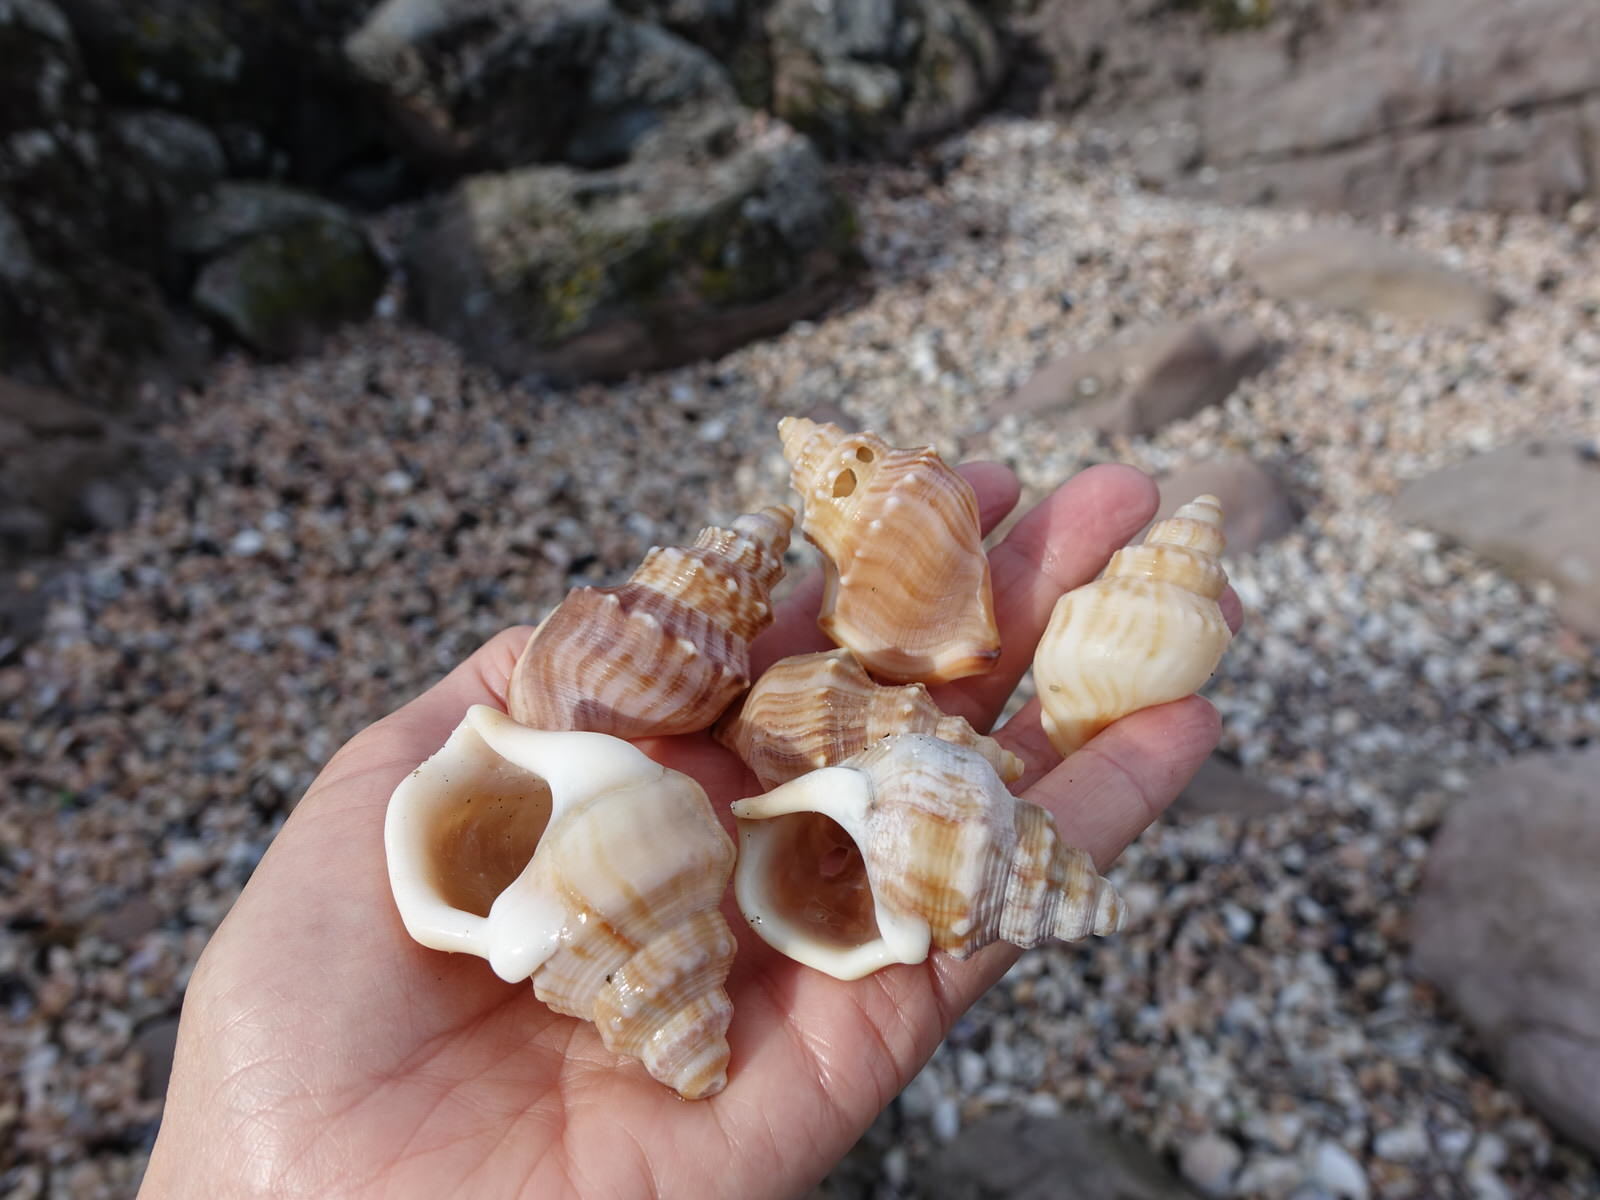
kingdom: Animalia
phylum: Mollusca
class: Gastropoda
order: Littorinimorpha
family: Struthiolariidae
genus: Struthiolaria
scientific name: Struthiolaria papulosa
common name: Large ostrich foot
